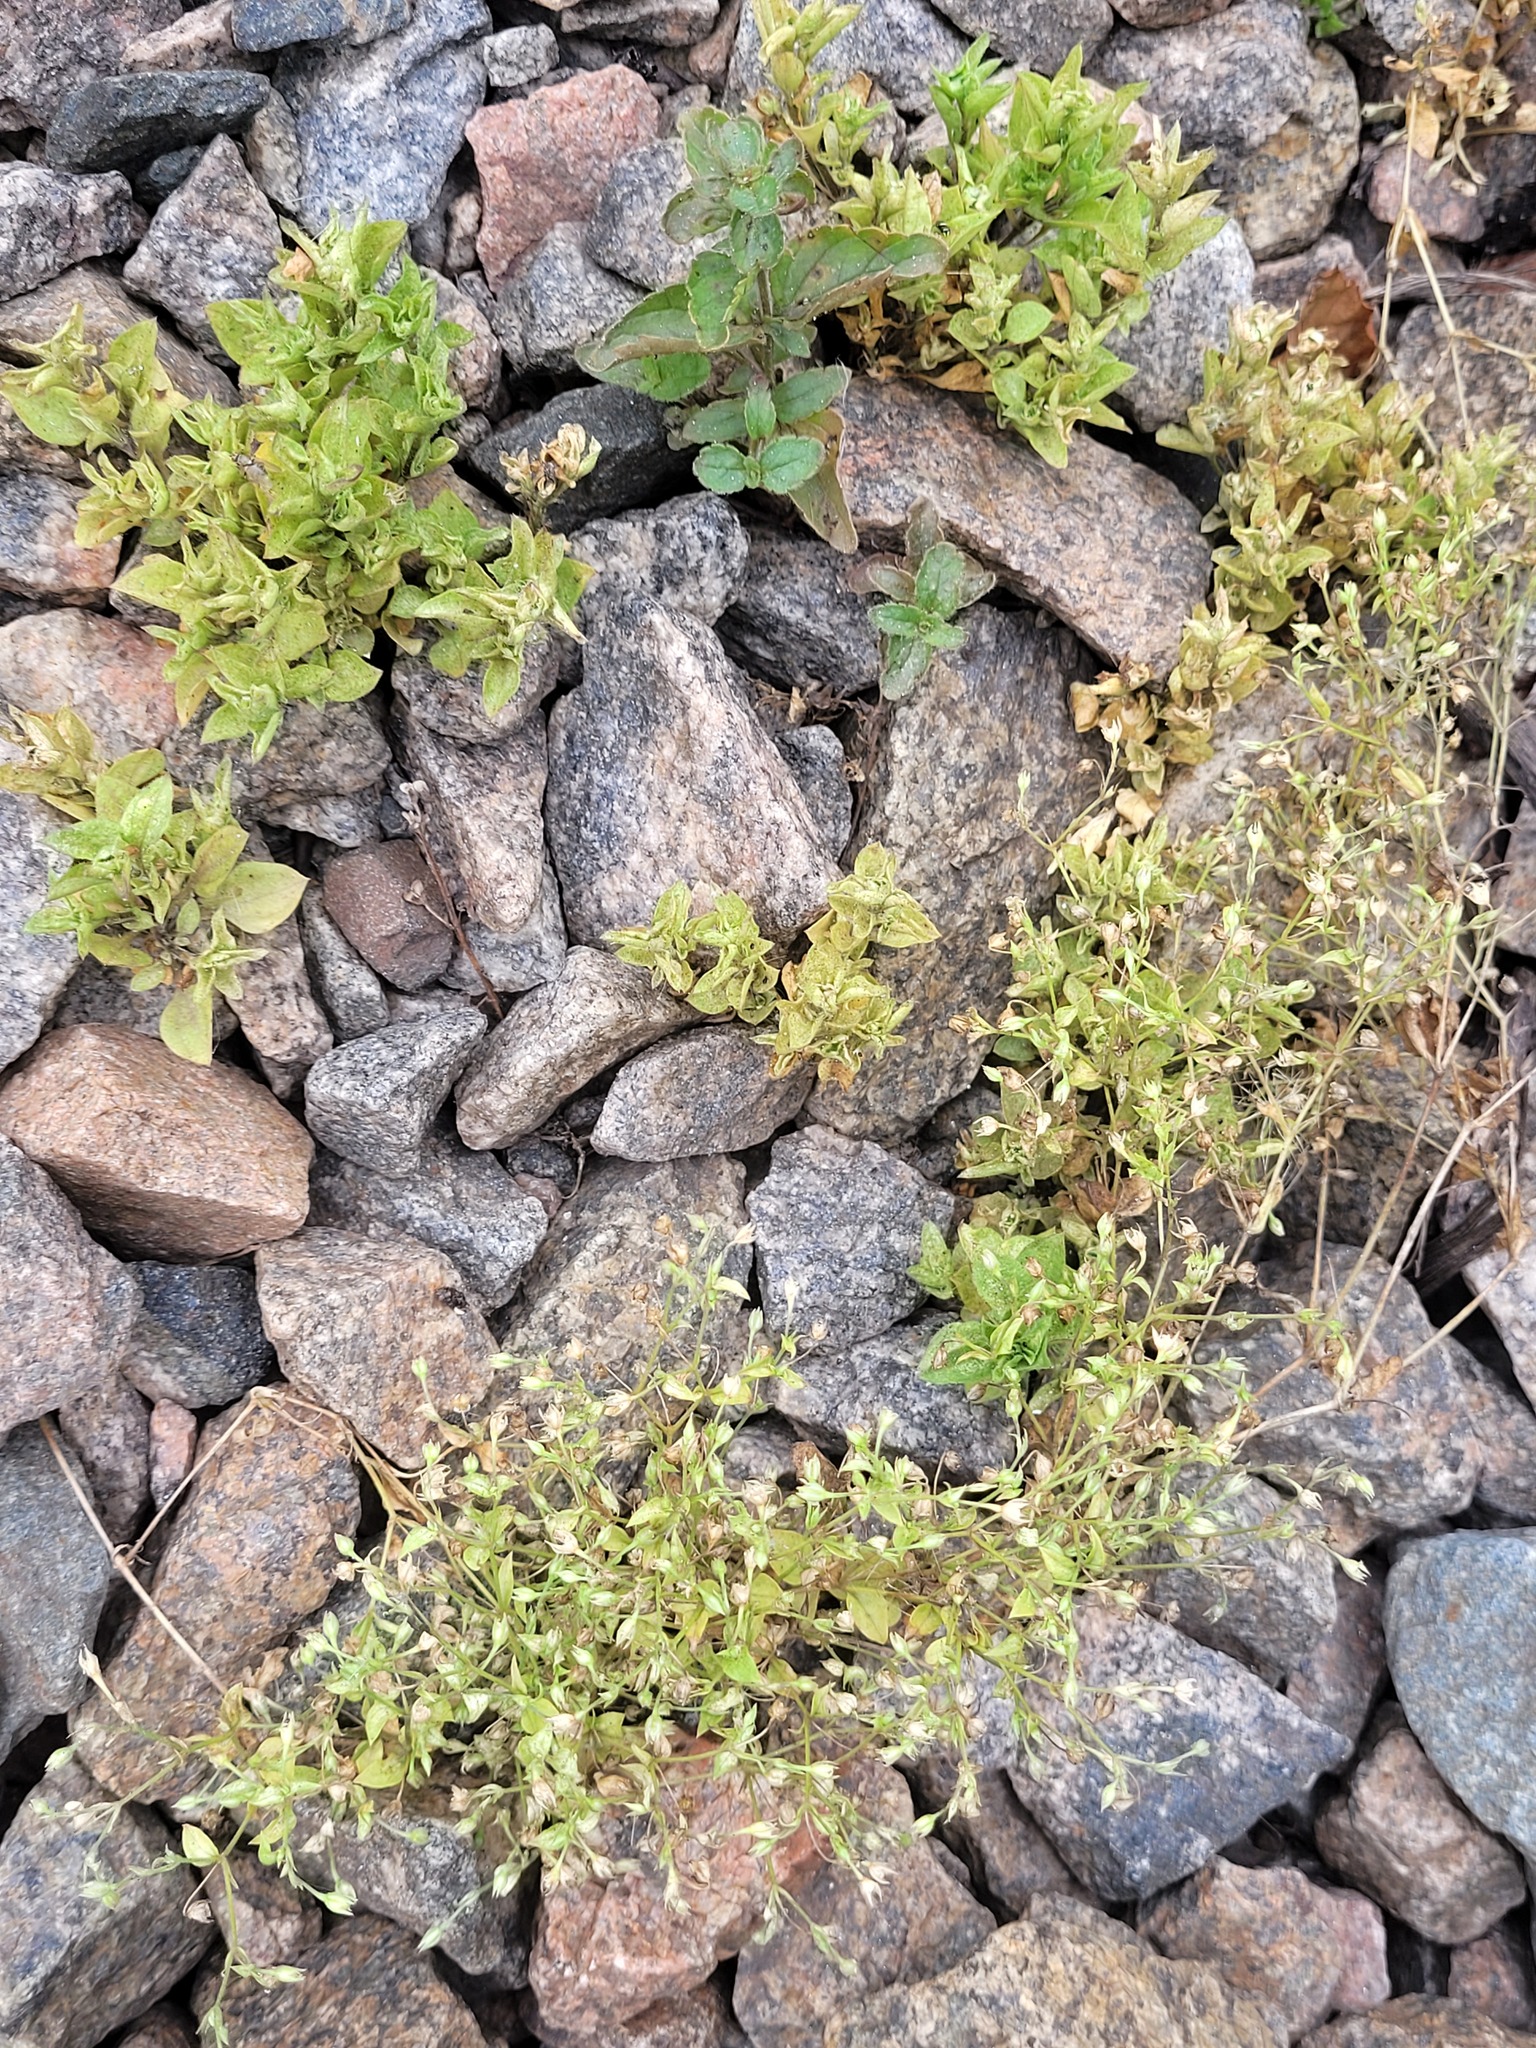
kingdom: Plantae
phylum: Tracheophyta
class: Magnoliopsida
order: Caryophyllales
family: Caryophyllaceae
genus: Moehringia
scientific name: Moehringia trinervia
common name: Three-nerved sandwort
